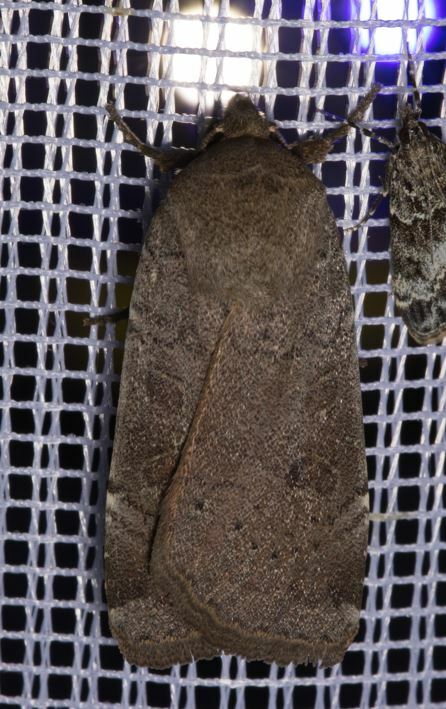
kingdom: Animalia
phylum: Arthropoda
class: Insecta
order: Lepidoptera
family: Noctuidae
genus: Noctua
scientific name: Noctua comes
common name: Lesser yellow underwing
